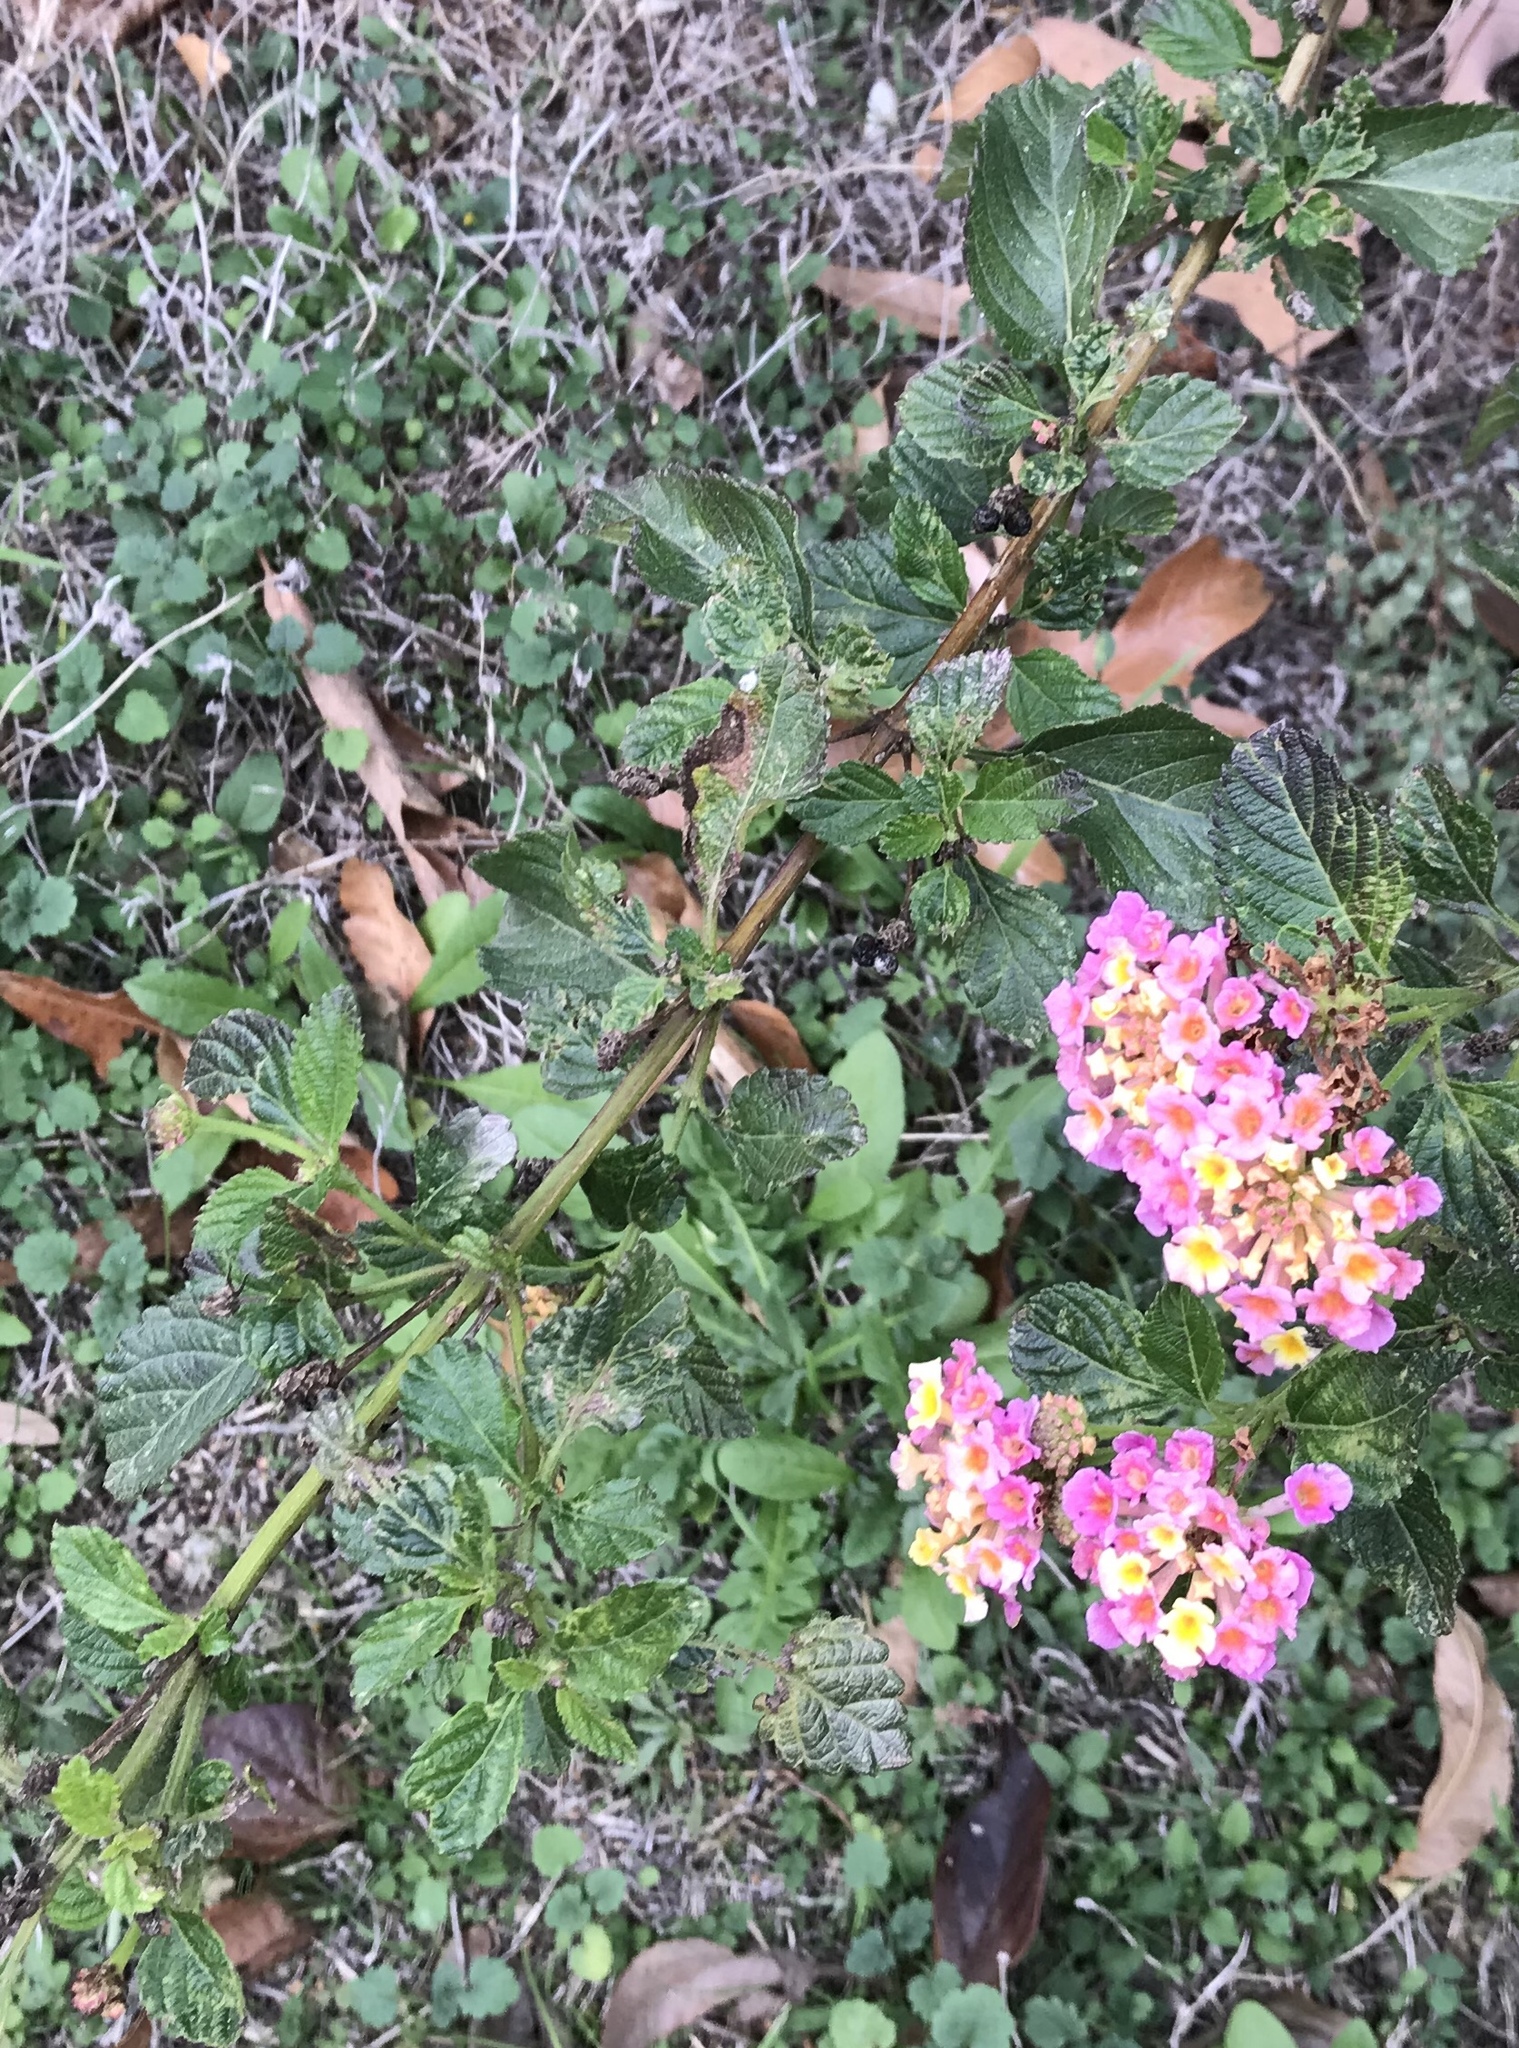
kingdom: Plantae
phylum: Tracheophyta
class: Magnoliopsida
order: Lamiales
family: Verbenaceae
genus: Lantana
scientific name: Lantana strigocamara
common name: Lantana
